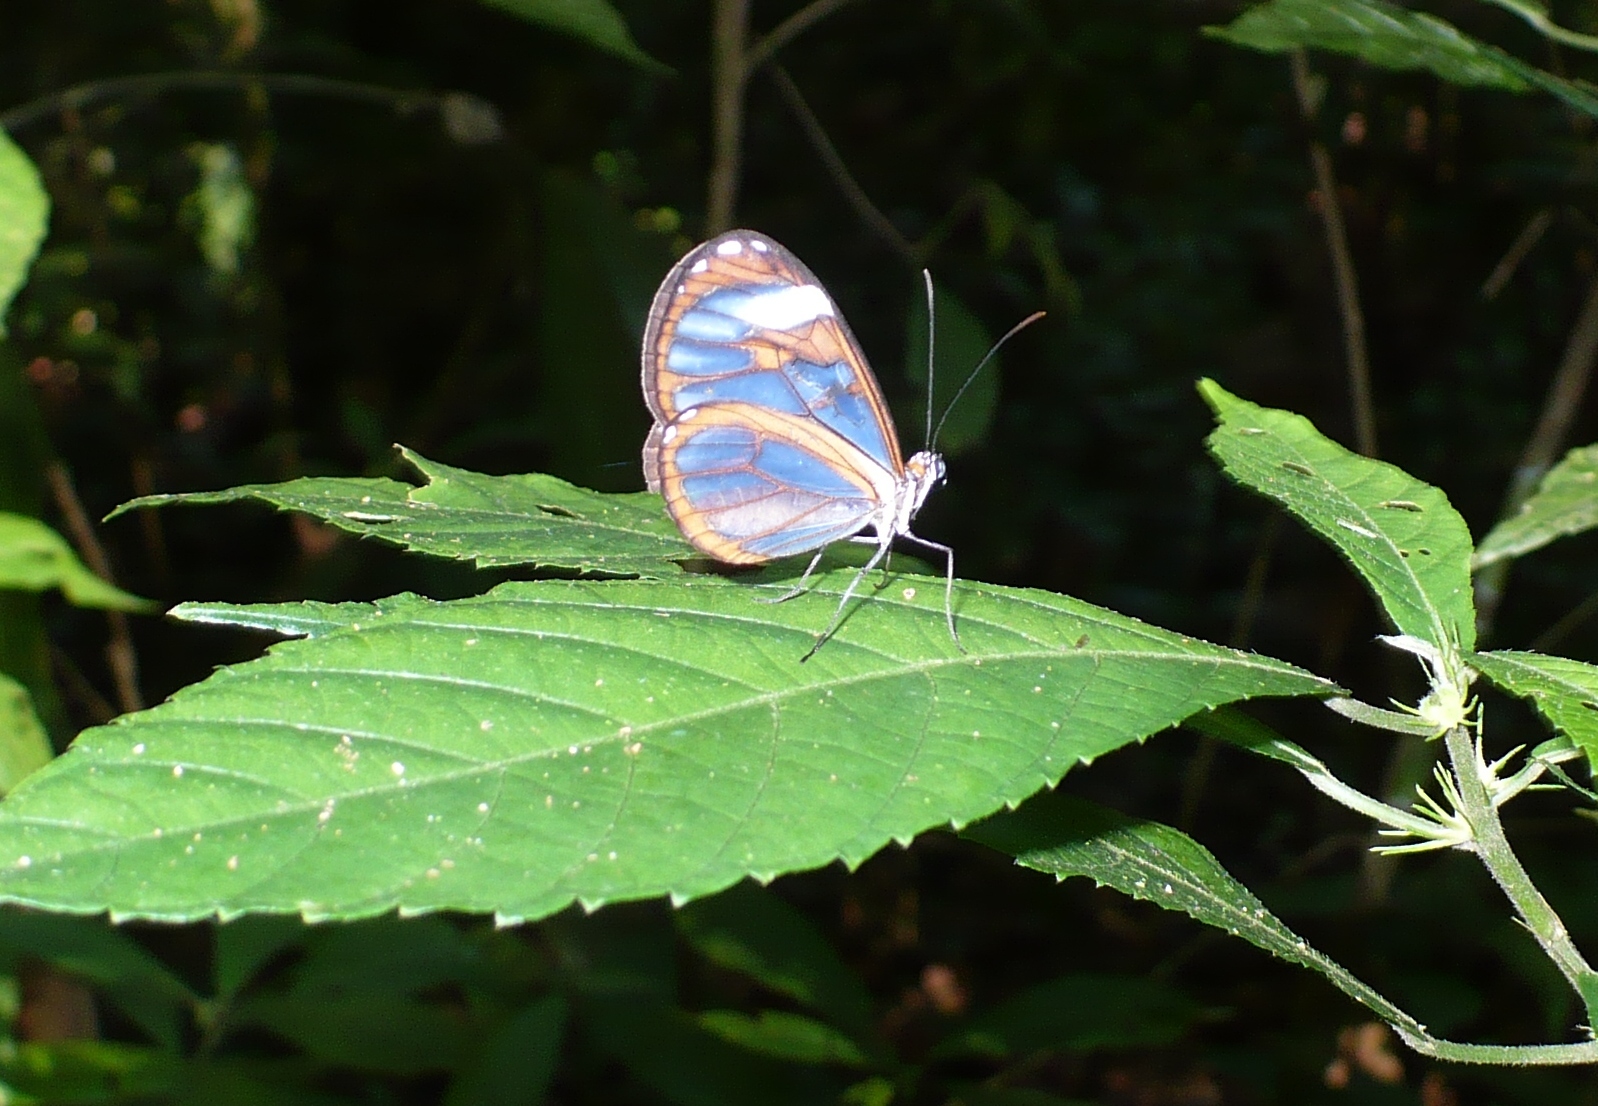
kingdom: Animalia
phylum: Arthropoda
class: Insecta
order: Lepidoptera
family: Nymphalidae
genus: Ithomia
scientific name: Ithomia diasia
